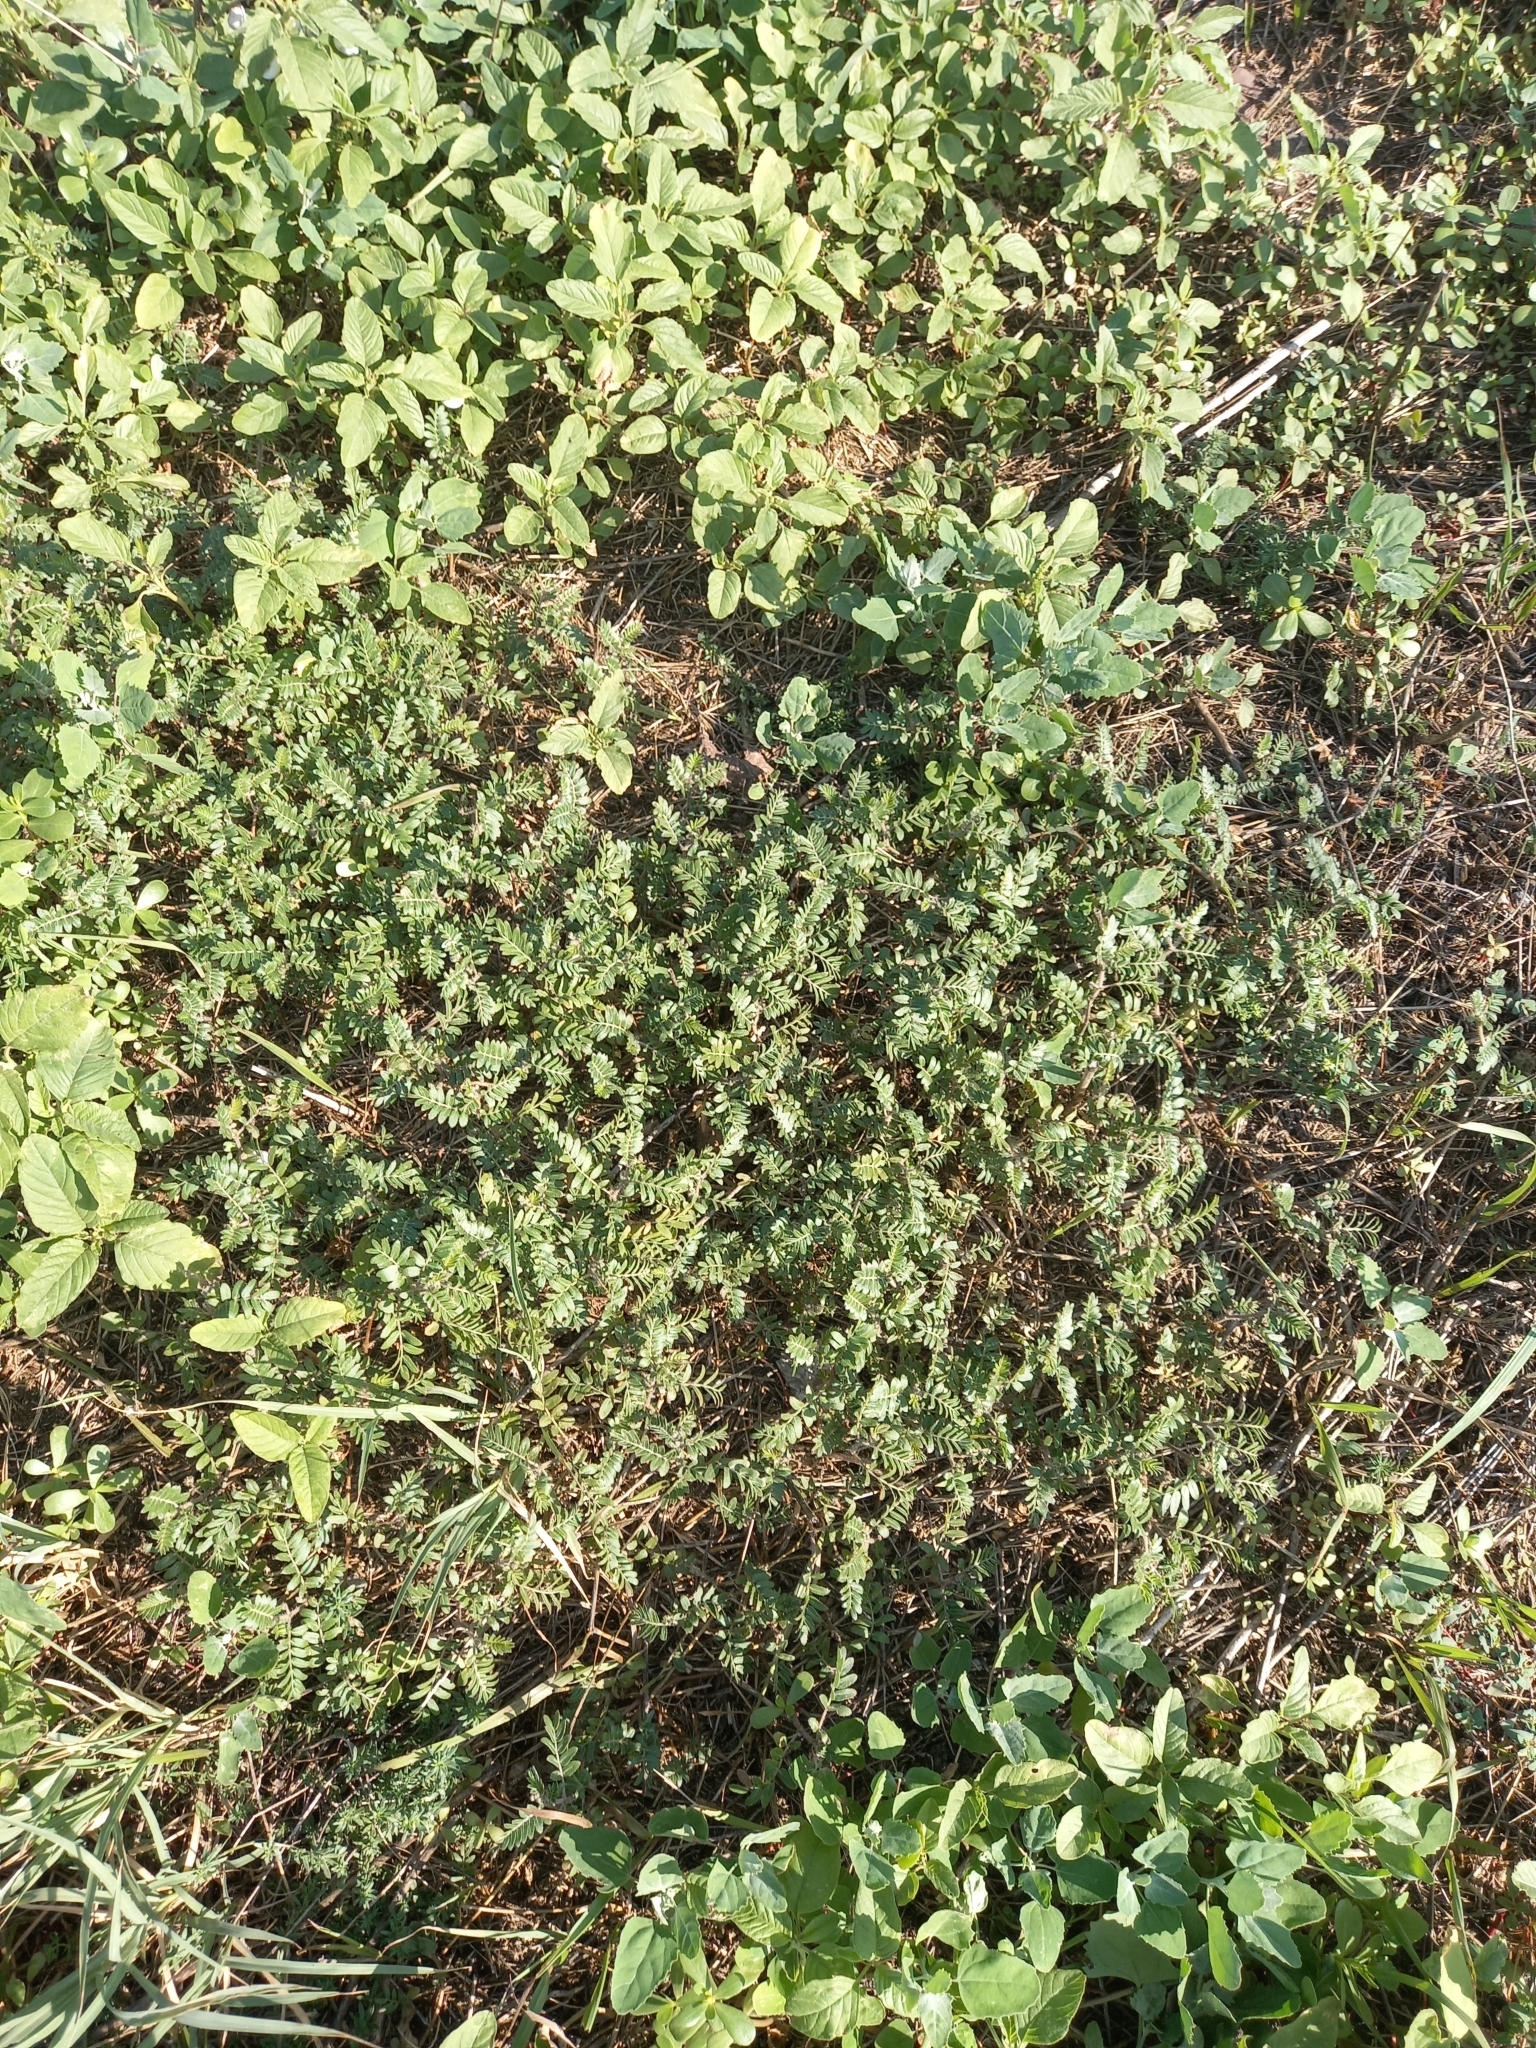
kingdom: Plantae
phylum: Tracheophyta
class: Magnoliopsida
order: Zygophyllales
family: Zygophyllaceae
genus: Tribulus
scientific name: Tribulus terrestris
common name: Puncturevine
